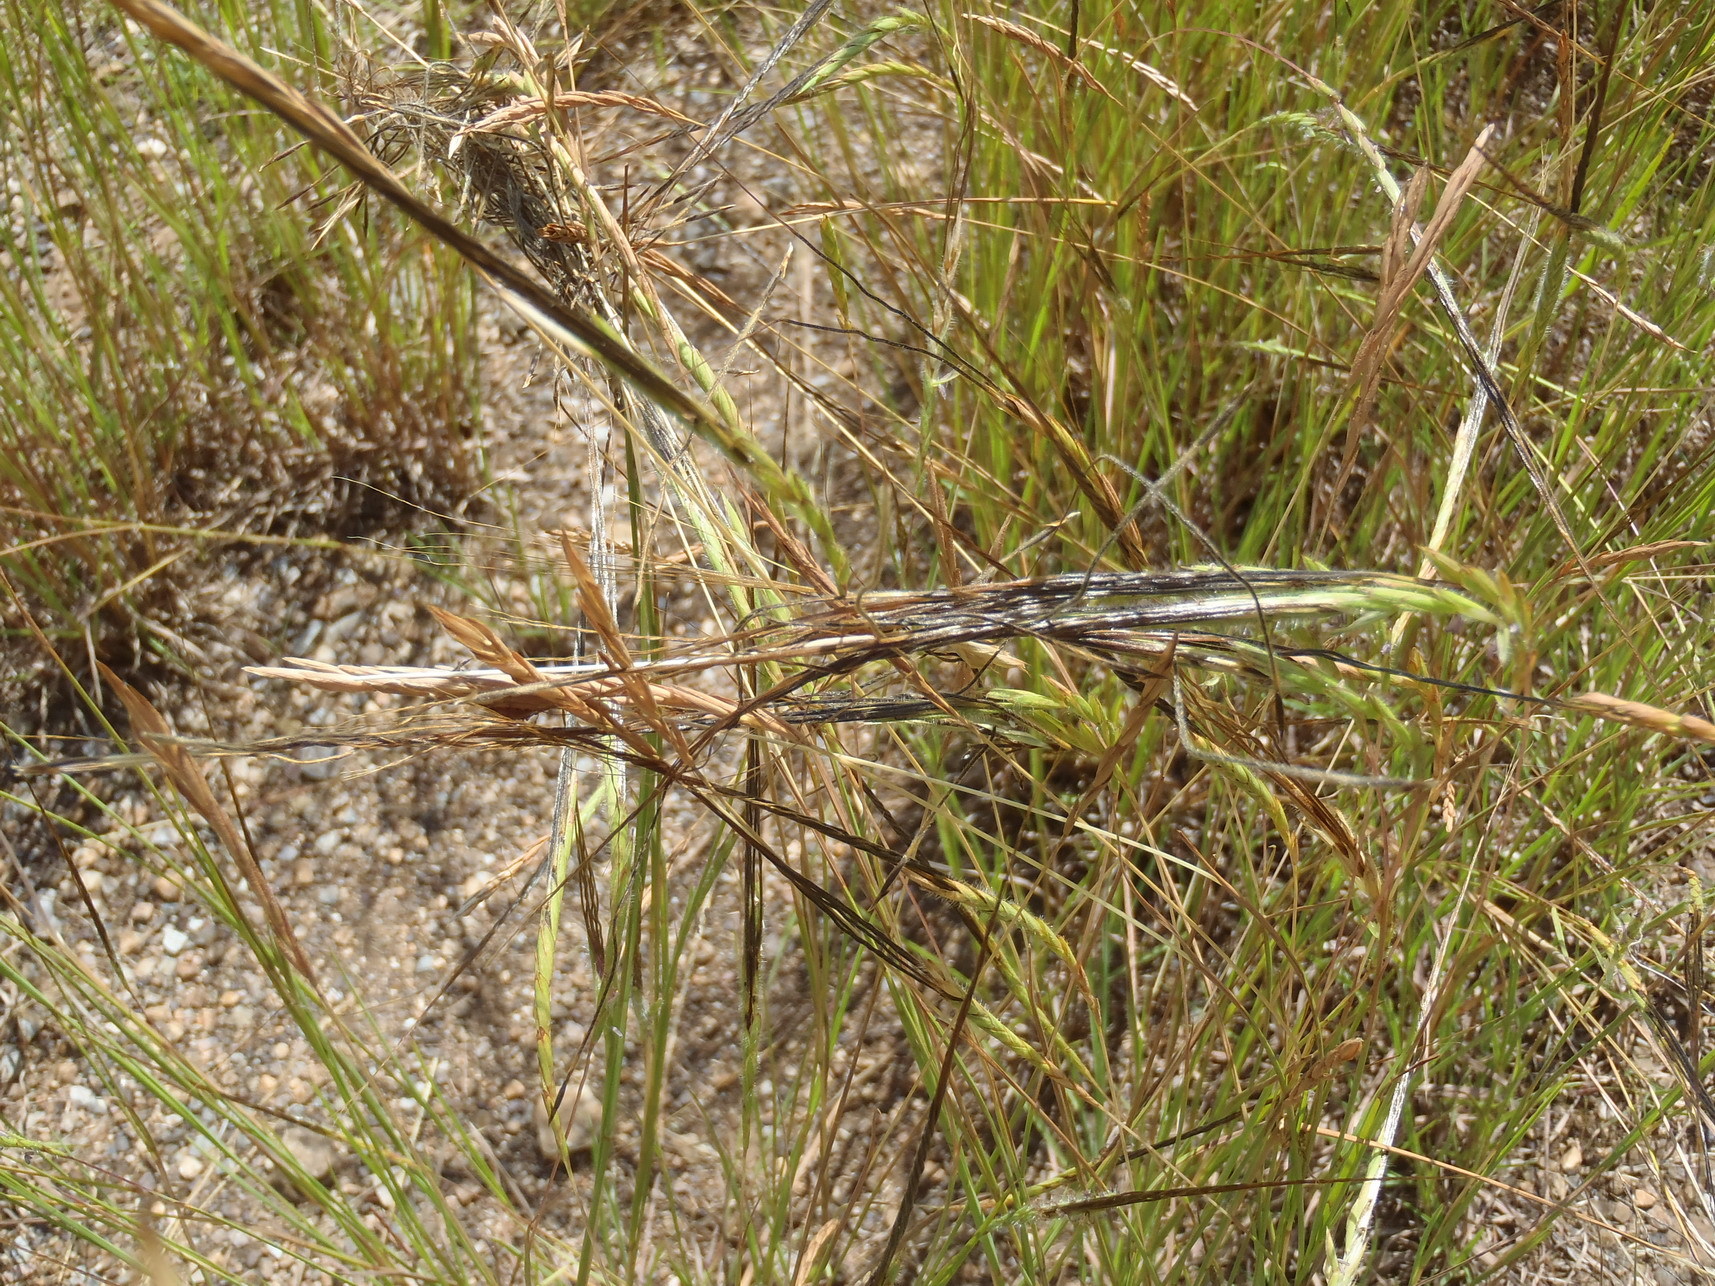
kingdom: Plantae
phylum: Tracheophyta
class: Liliopsida
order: Poales
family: Poaceae
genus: Heteropogon
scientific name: Heteropogon contortus
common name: Tanglehead
